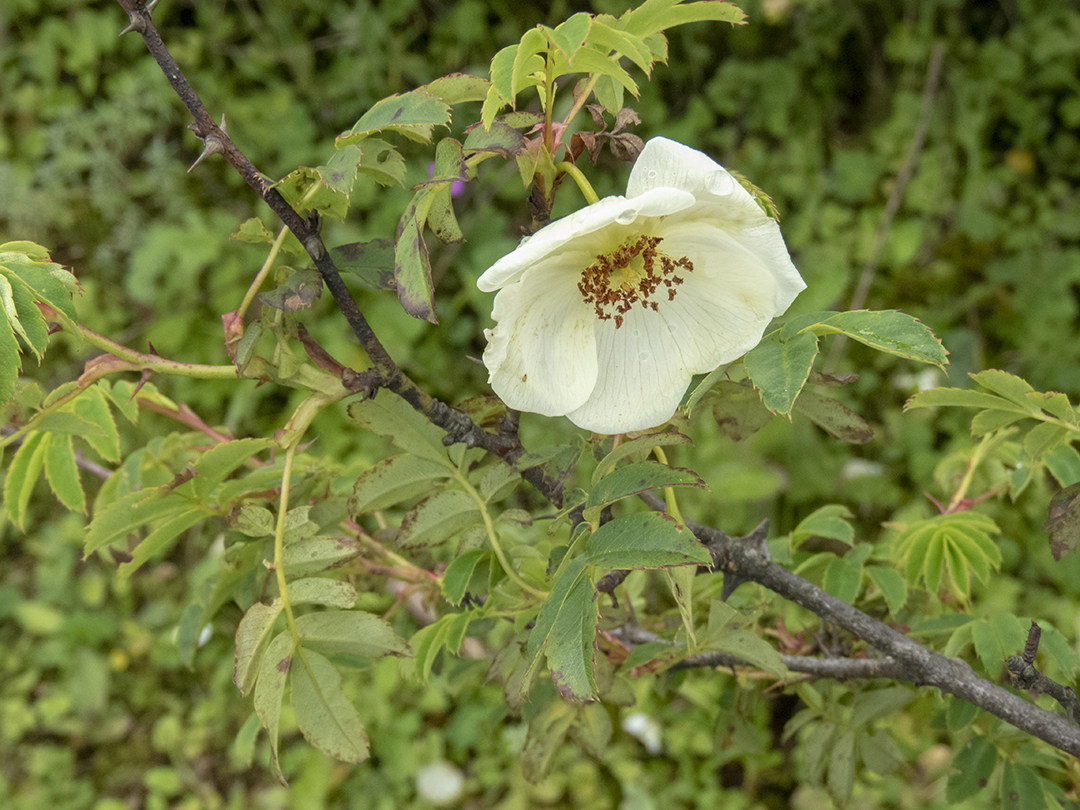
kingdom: Plantae
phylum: Tracheophyta
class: Magnoliopsida
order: Rosales
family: Rosaceae
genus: Rosa
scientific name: Rosa sericea
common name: Silky rose
